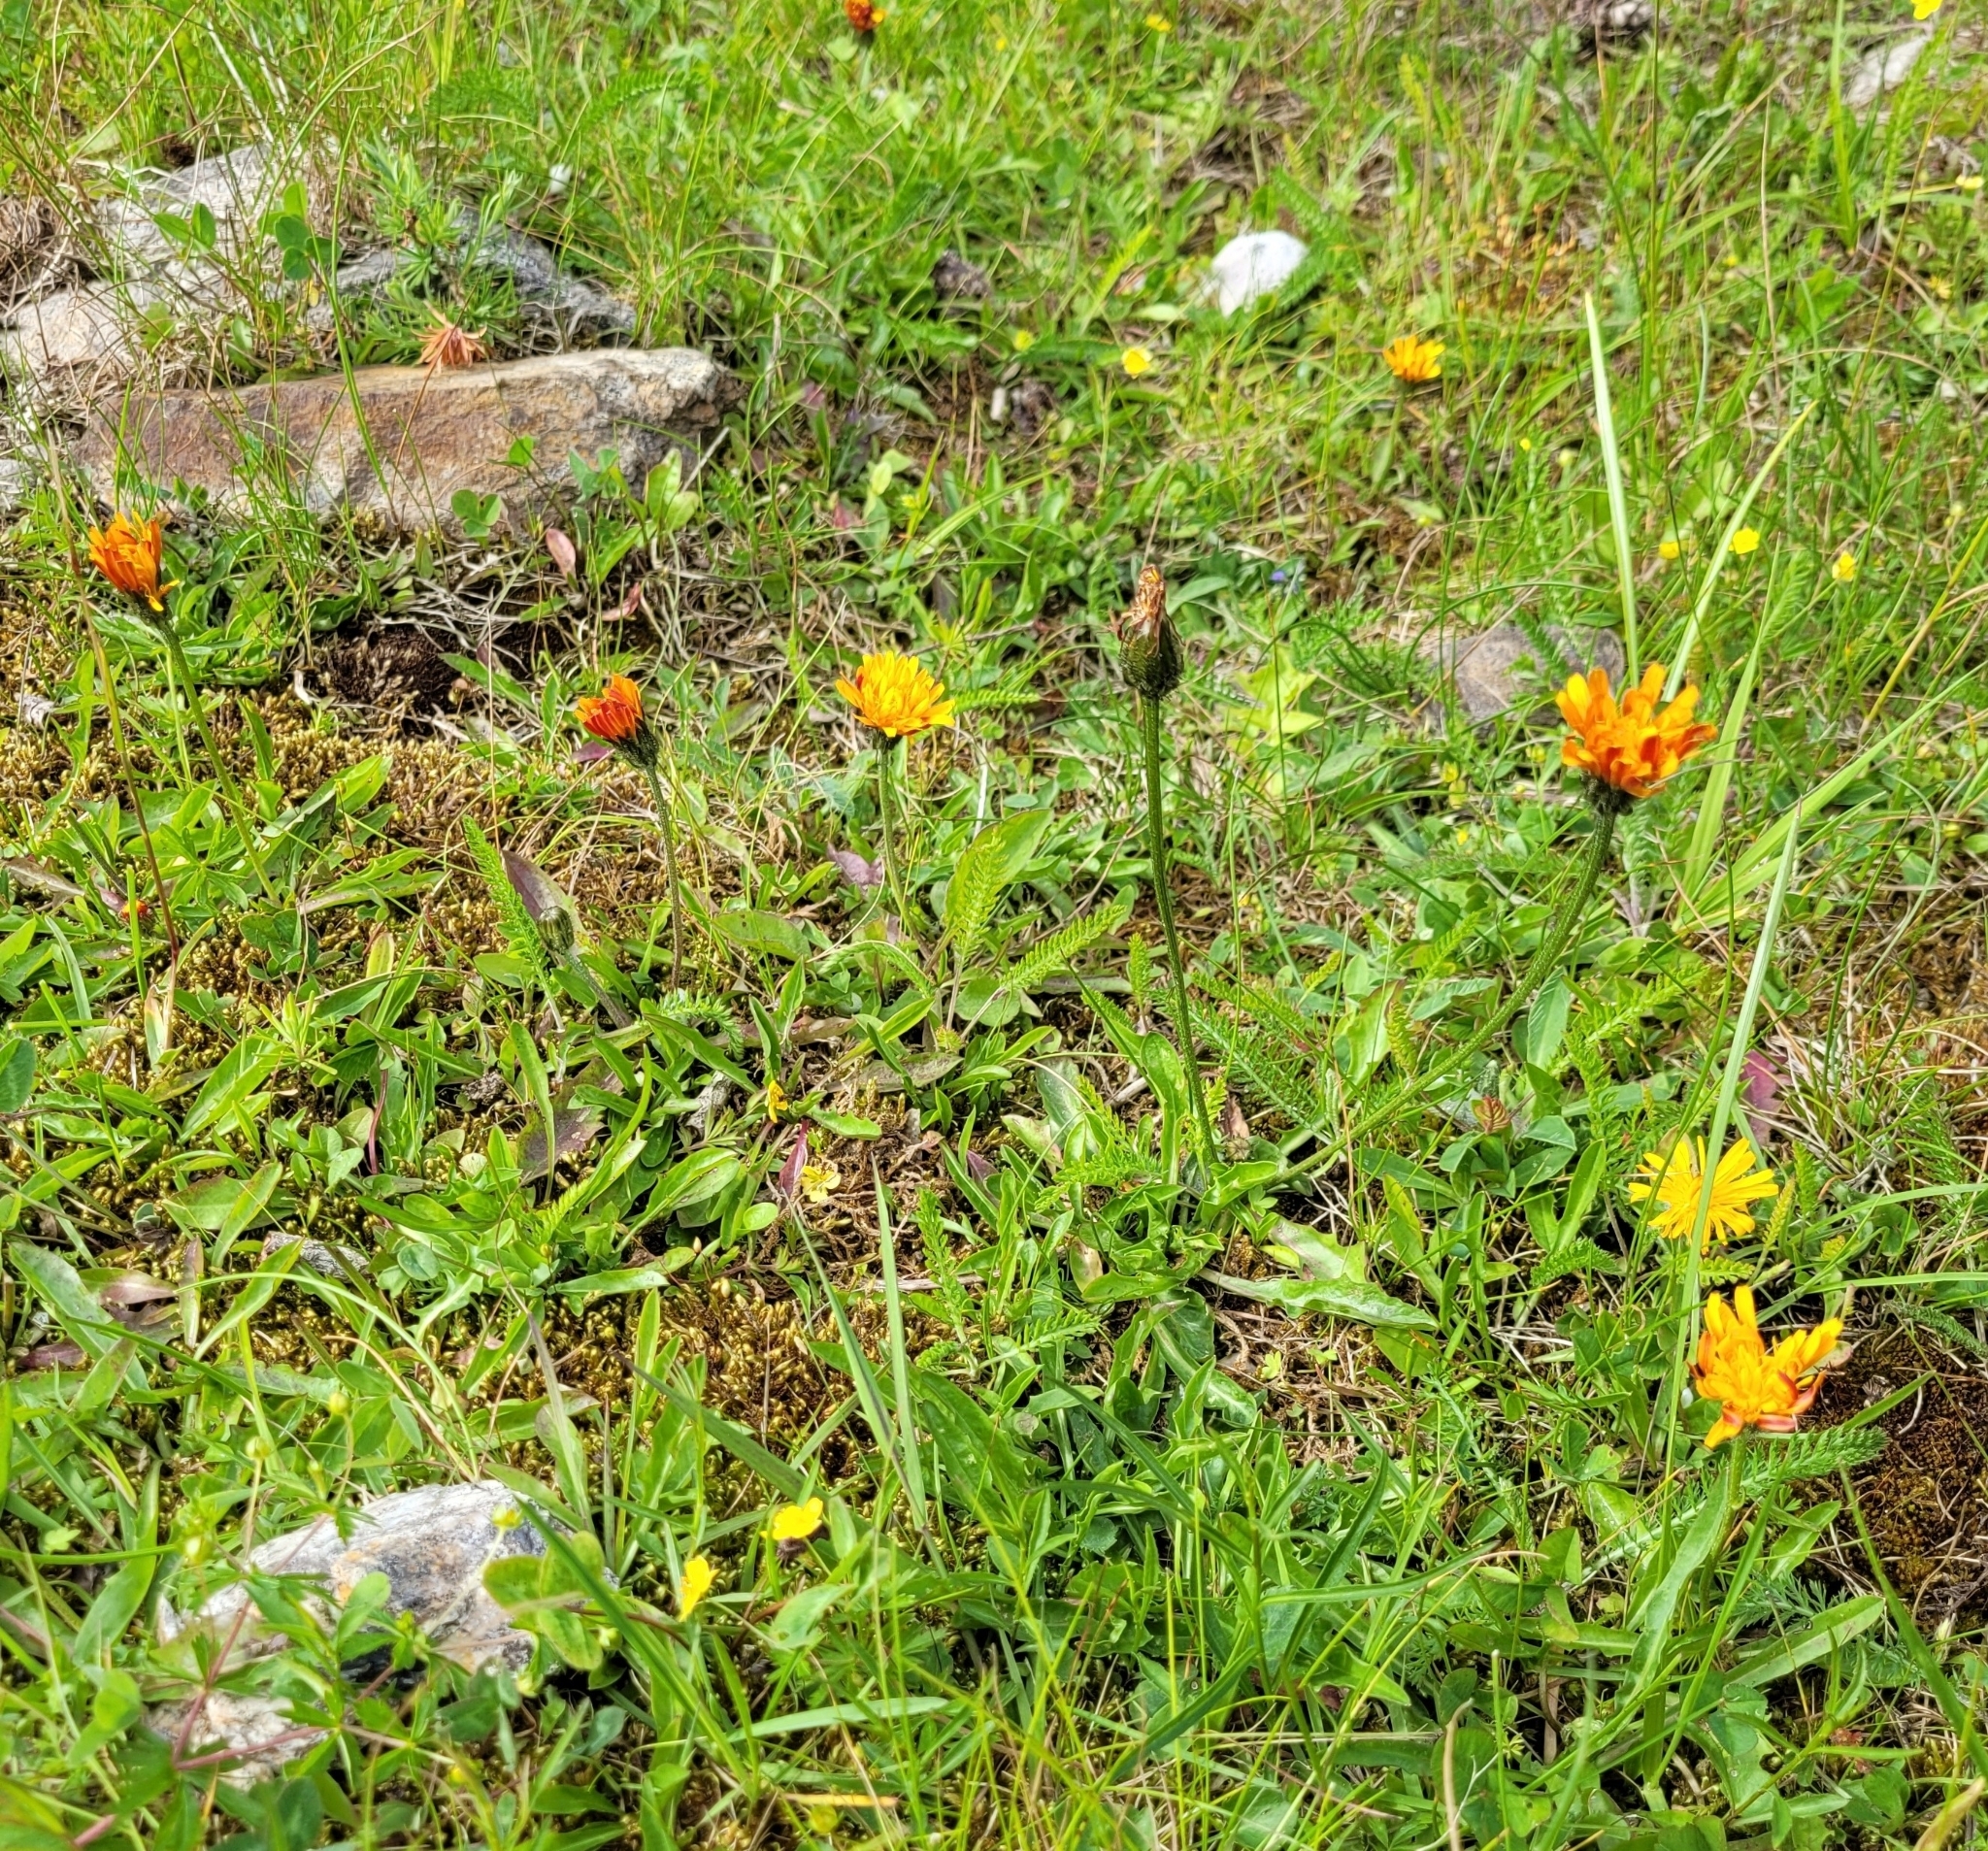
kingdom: Plantae
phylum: Tracheophyta
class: Magnoliopsida
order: Asterales
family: Asteraceae
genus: Crepis
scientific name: Crepis aurea
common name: Golden hawk's-beard
